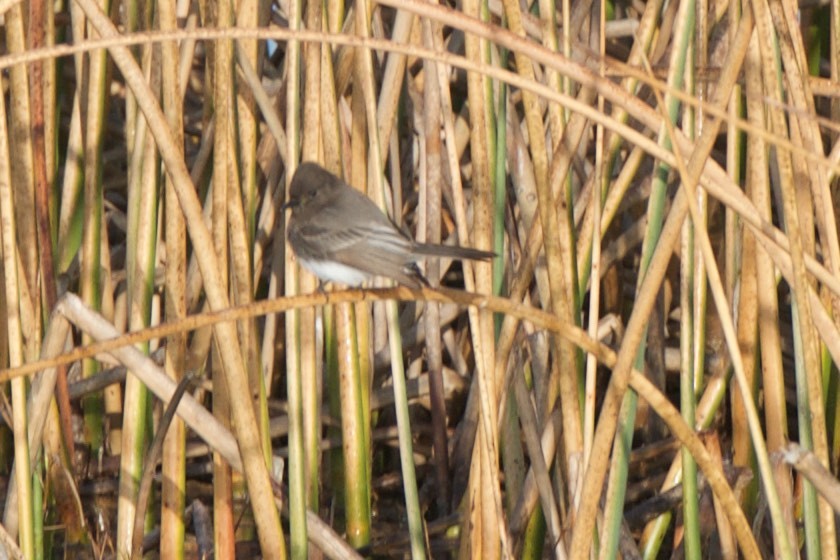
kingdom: Animalia
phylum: Chordata
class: Aves
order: Passeriformes
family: Tyrannidae
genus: Sayornis
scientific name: Sayornis nigricans
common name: Black phoebe
